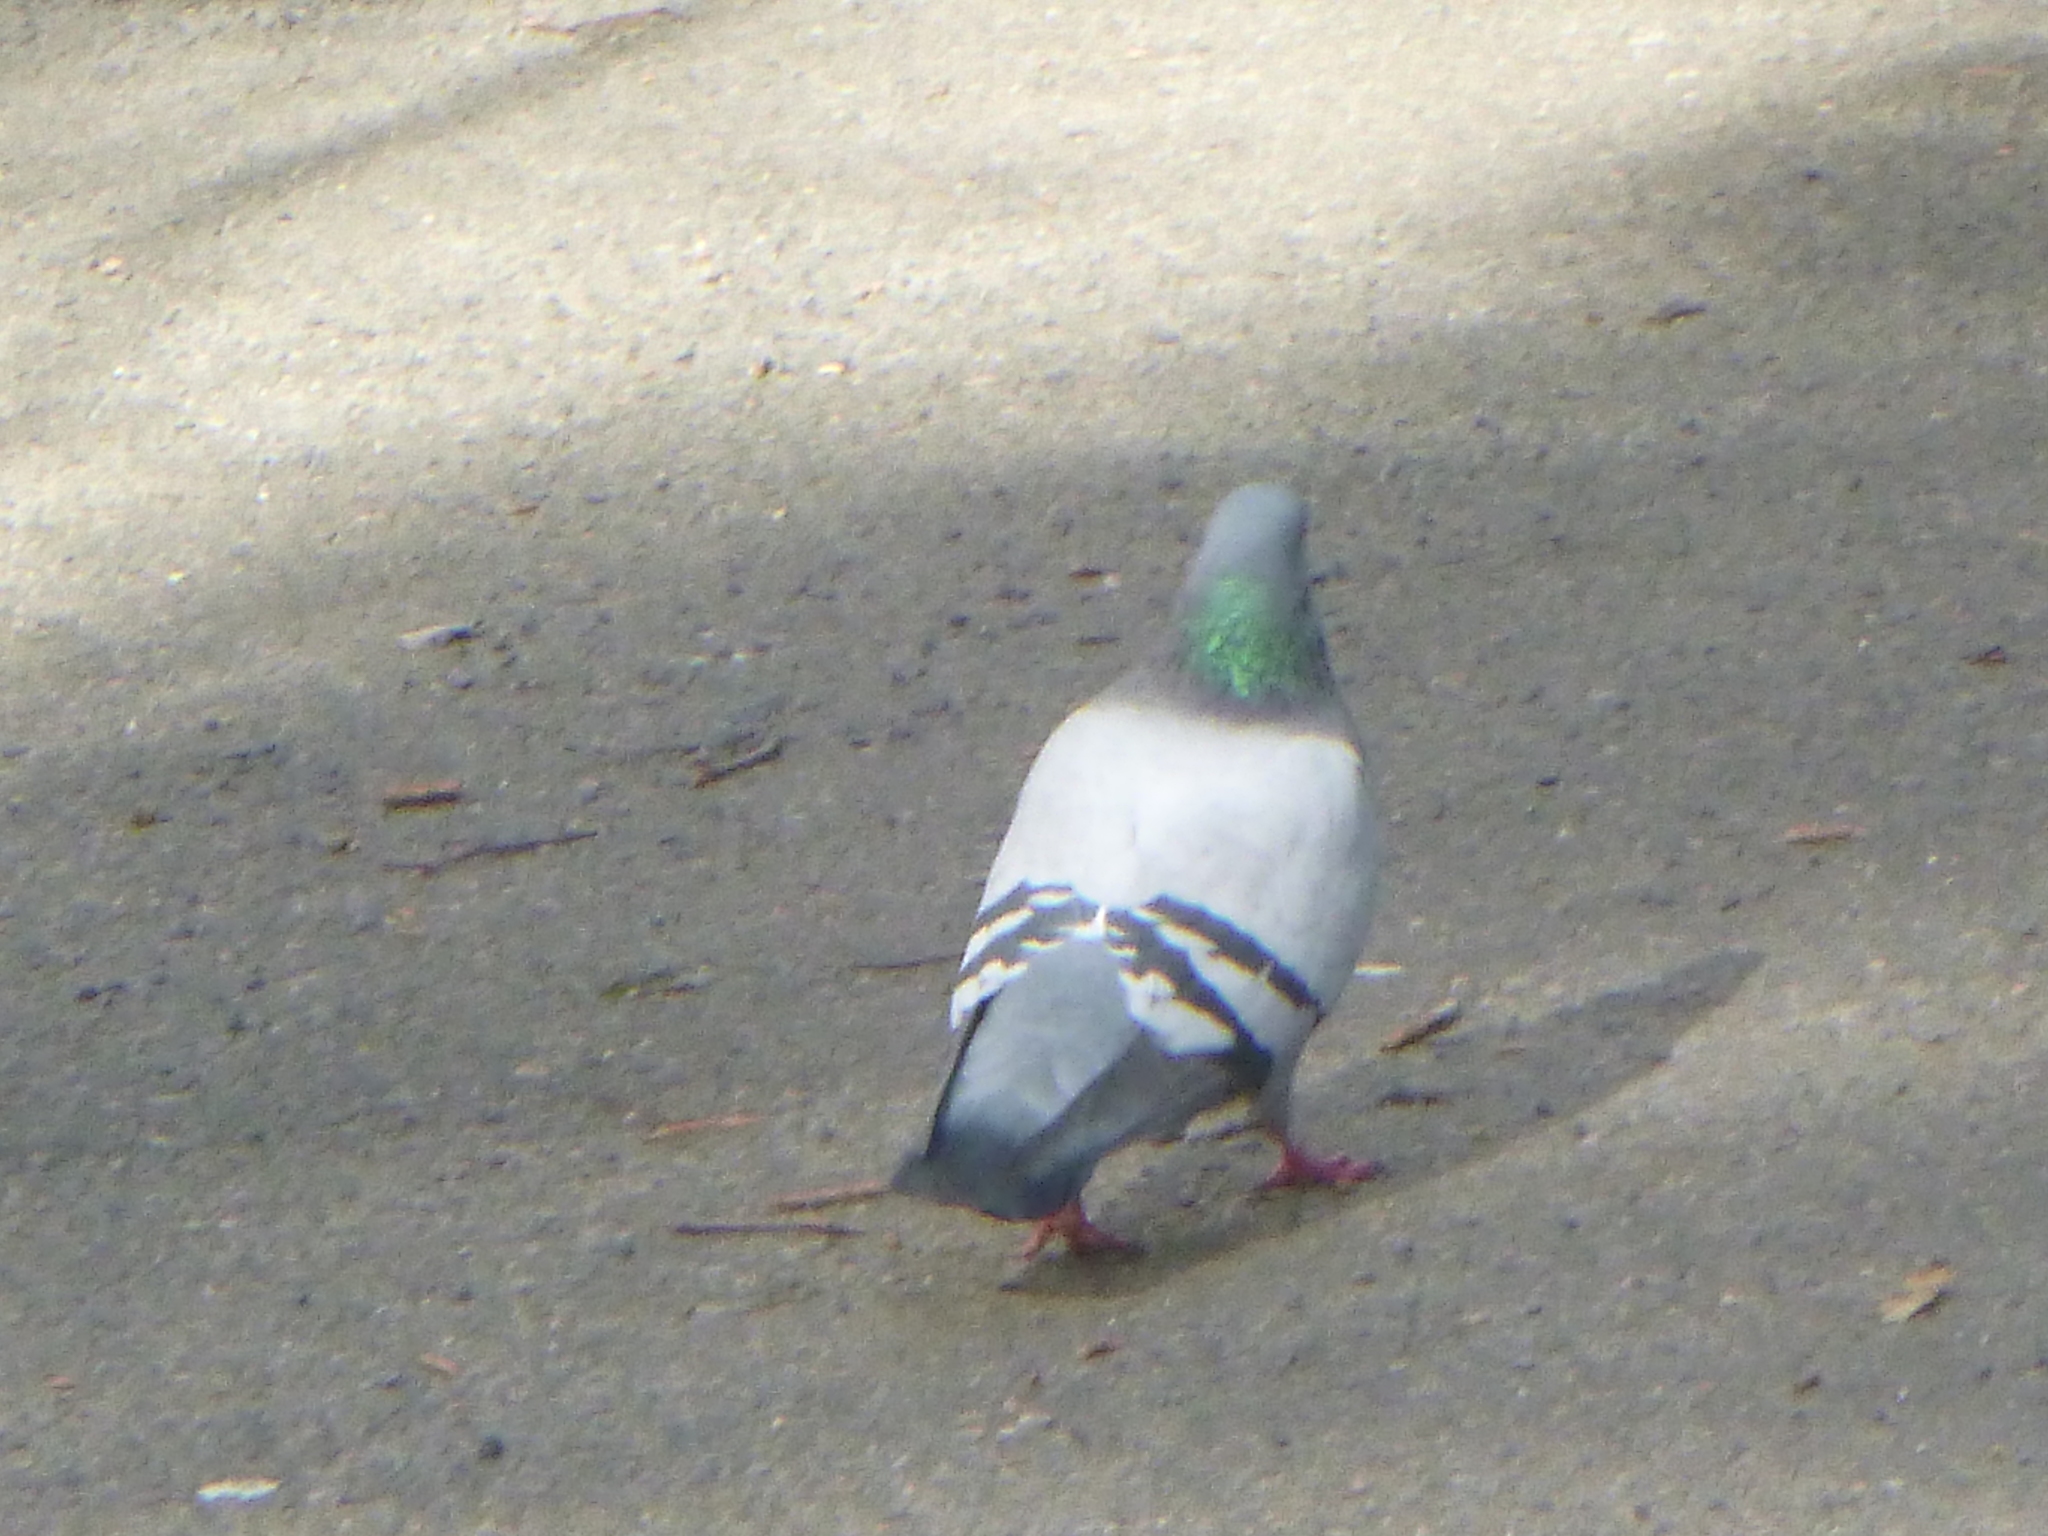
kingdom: Animalia
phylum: Chordata
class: Aves
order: Columbiformes
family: Columbidae
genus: Columba
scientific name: Columba livia
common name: Rock pigeon
